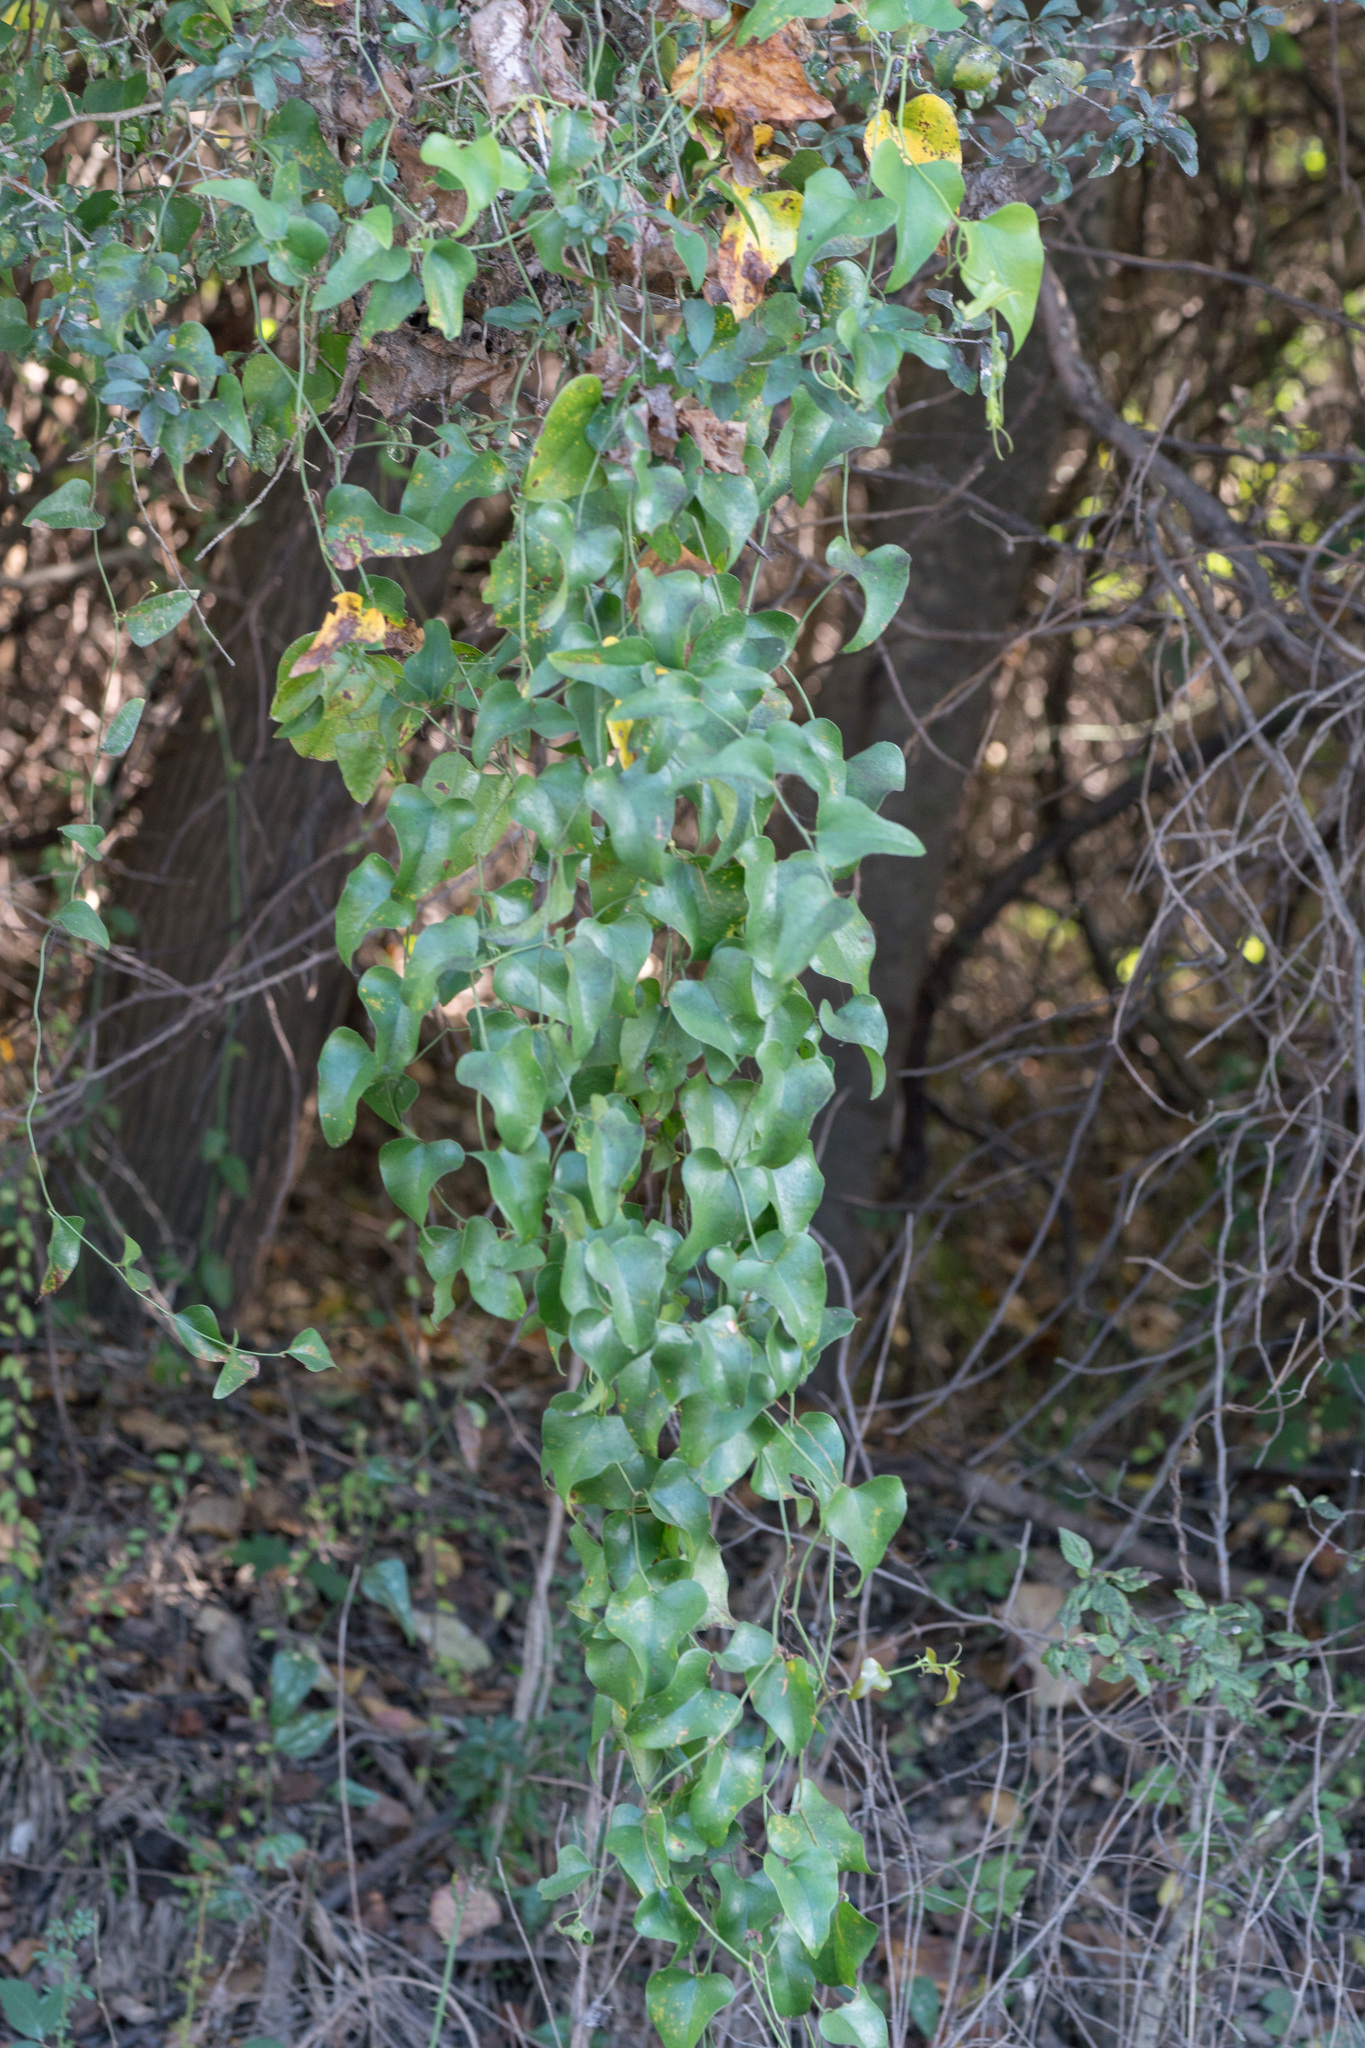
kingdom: Plantae
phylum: Tracheophyta
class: Liliopsida
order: Liliales
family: Smilacaceae
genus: Smilax
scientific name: Smilax bona-nox
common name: Catbrier
